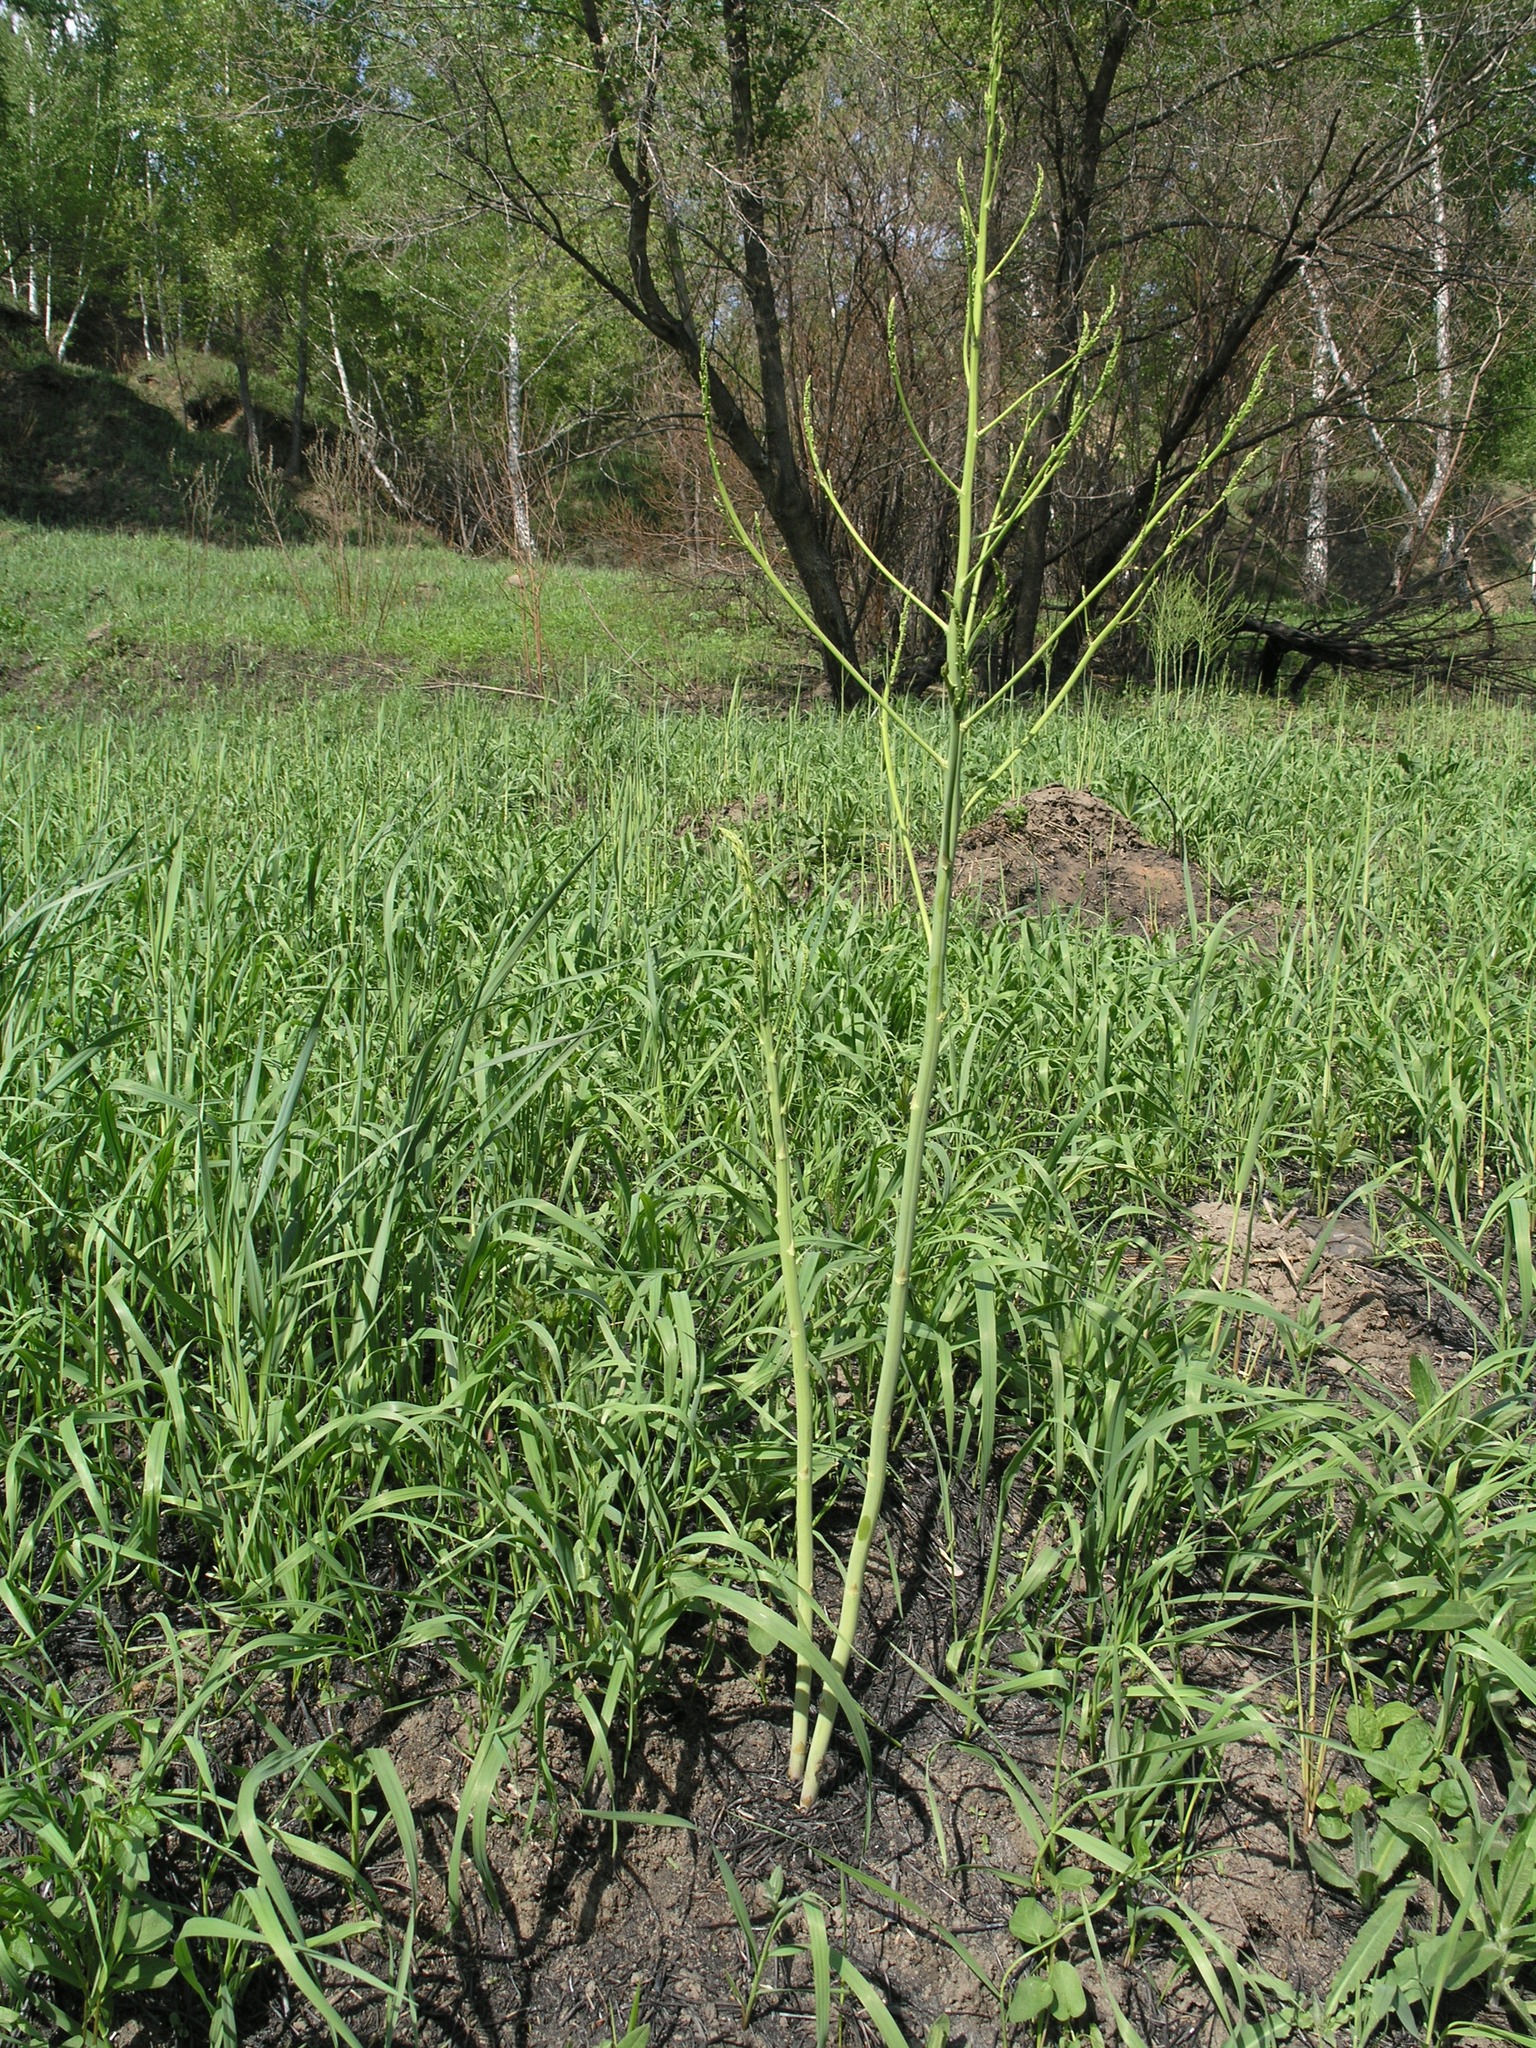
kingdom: Plantae
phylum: Tracheophyta
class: Liliopsida
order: Asparagales
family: Asparagaceae
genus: Asparagus
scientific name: Asparagus officinalis
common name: Garden asparagus
